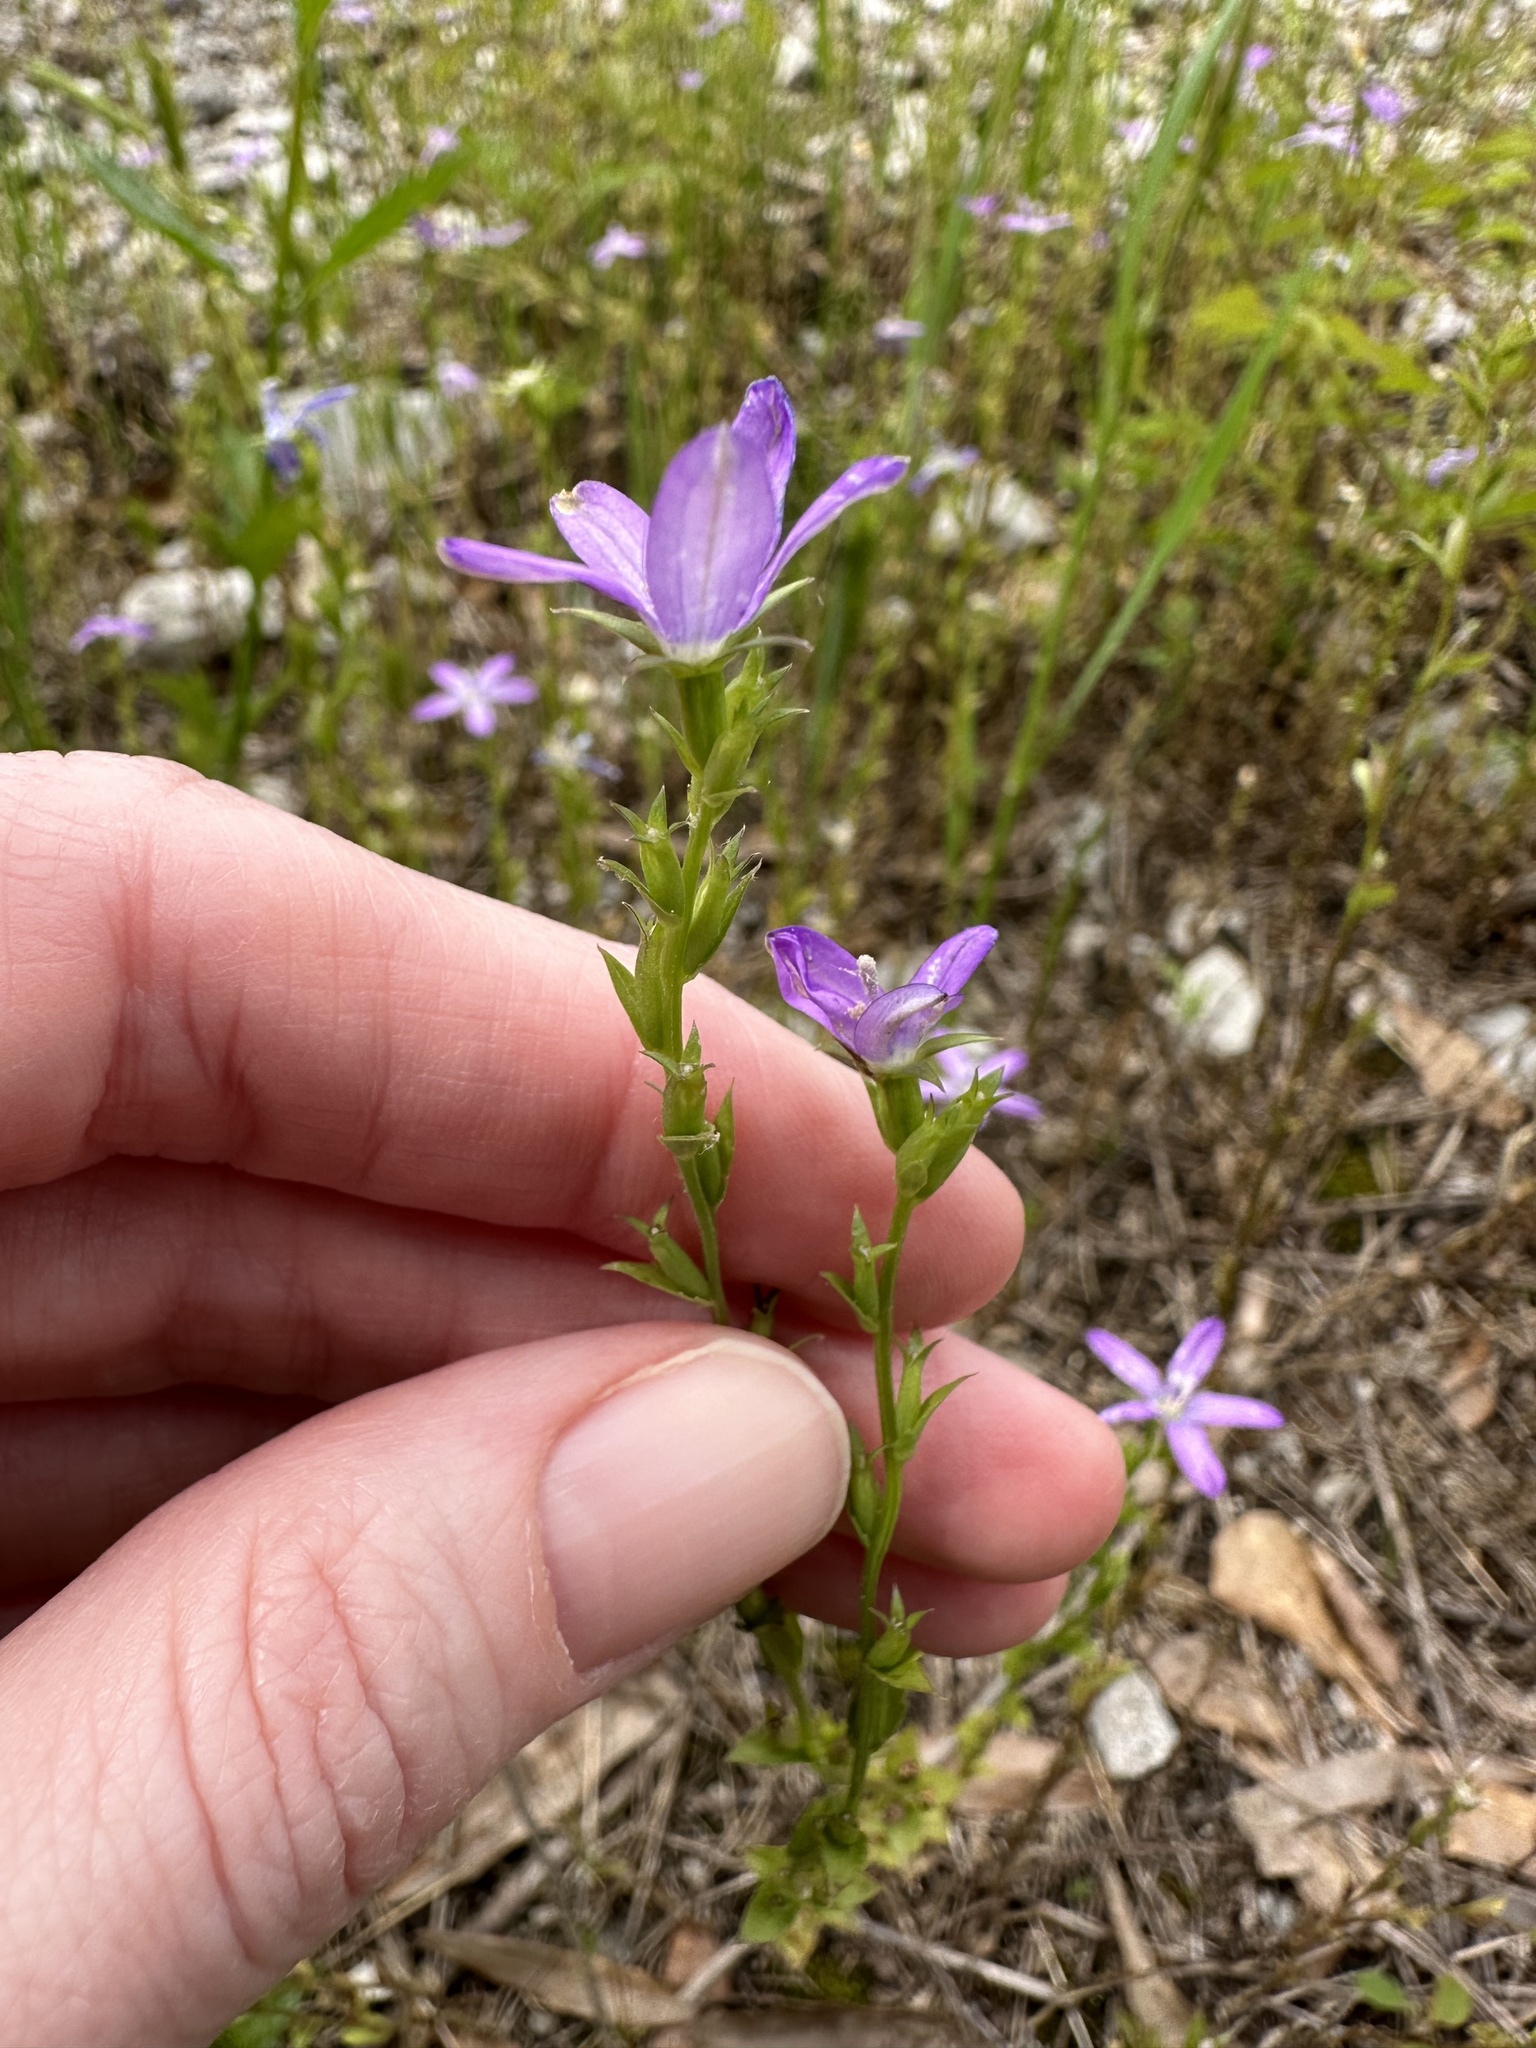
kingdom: Plantae
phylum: Tracheophyta
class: Magnoliopsida
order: Asterales
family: Campanulaceae
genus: Triodanis
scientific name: Triodanis biflora
